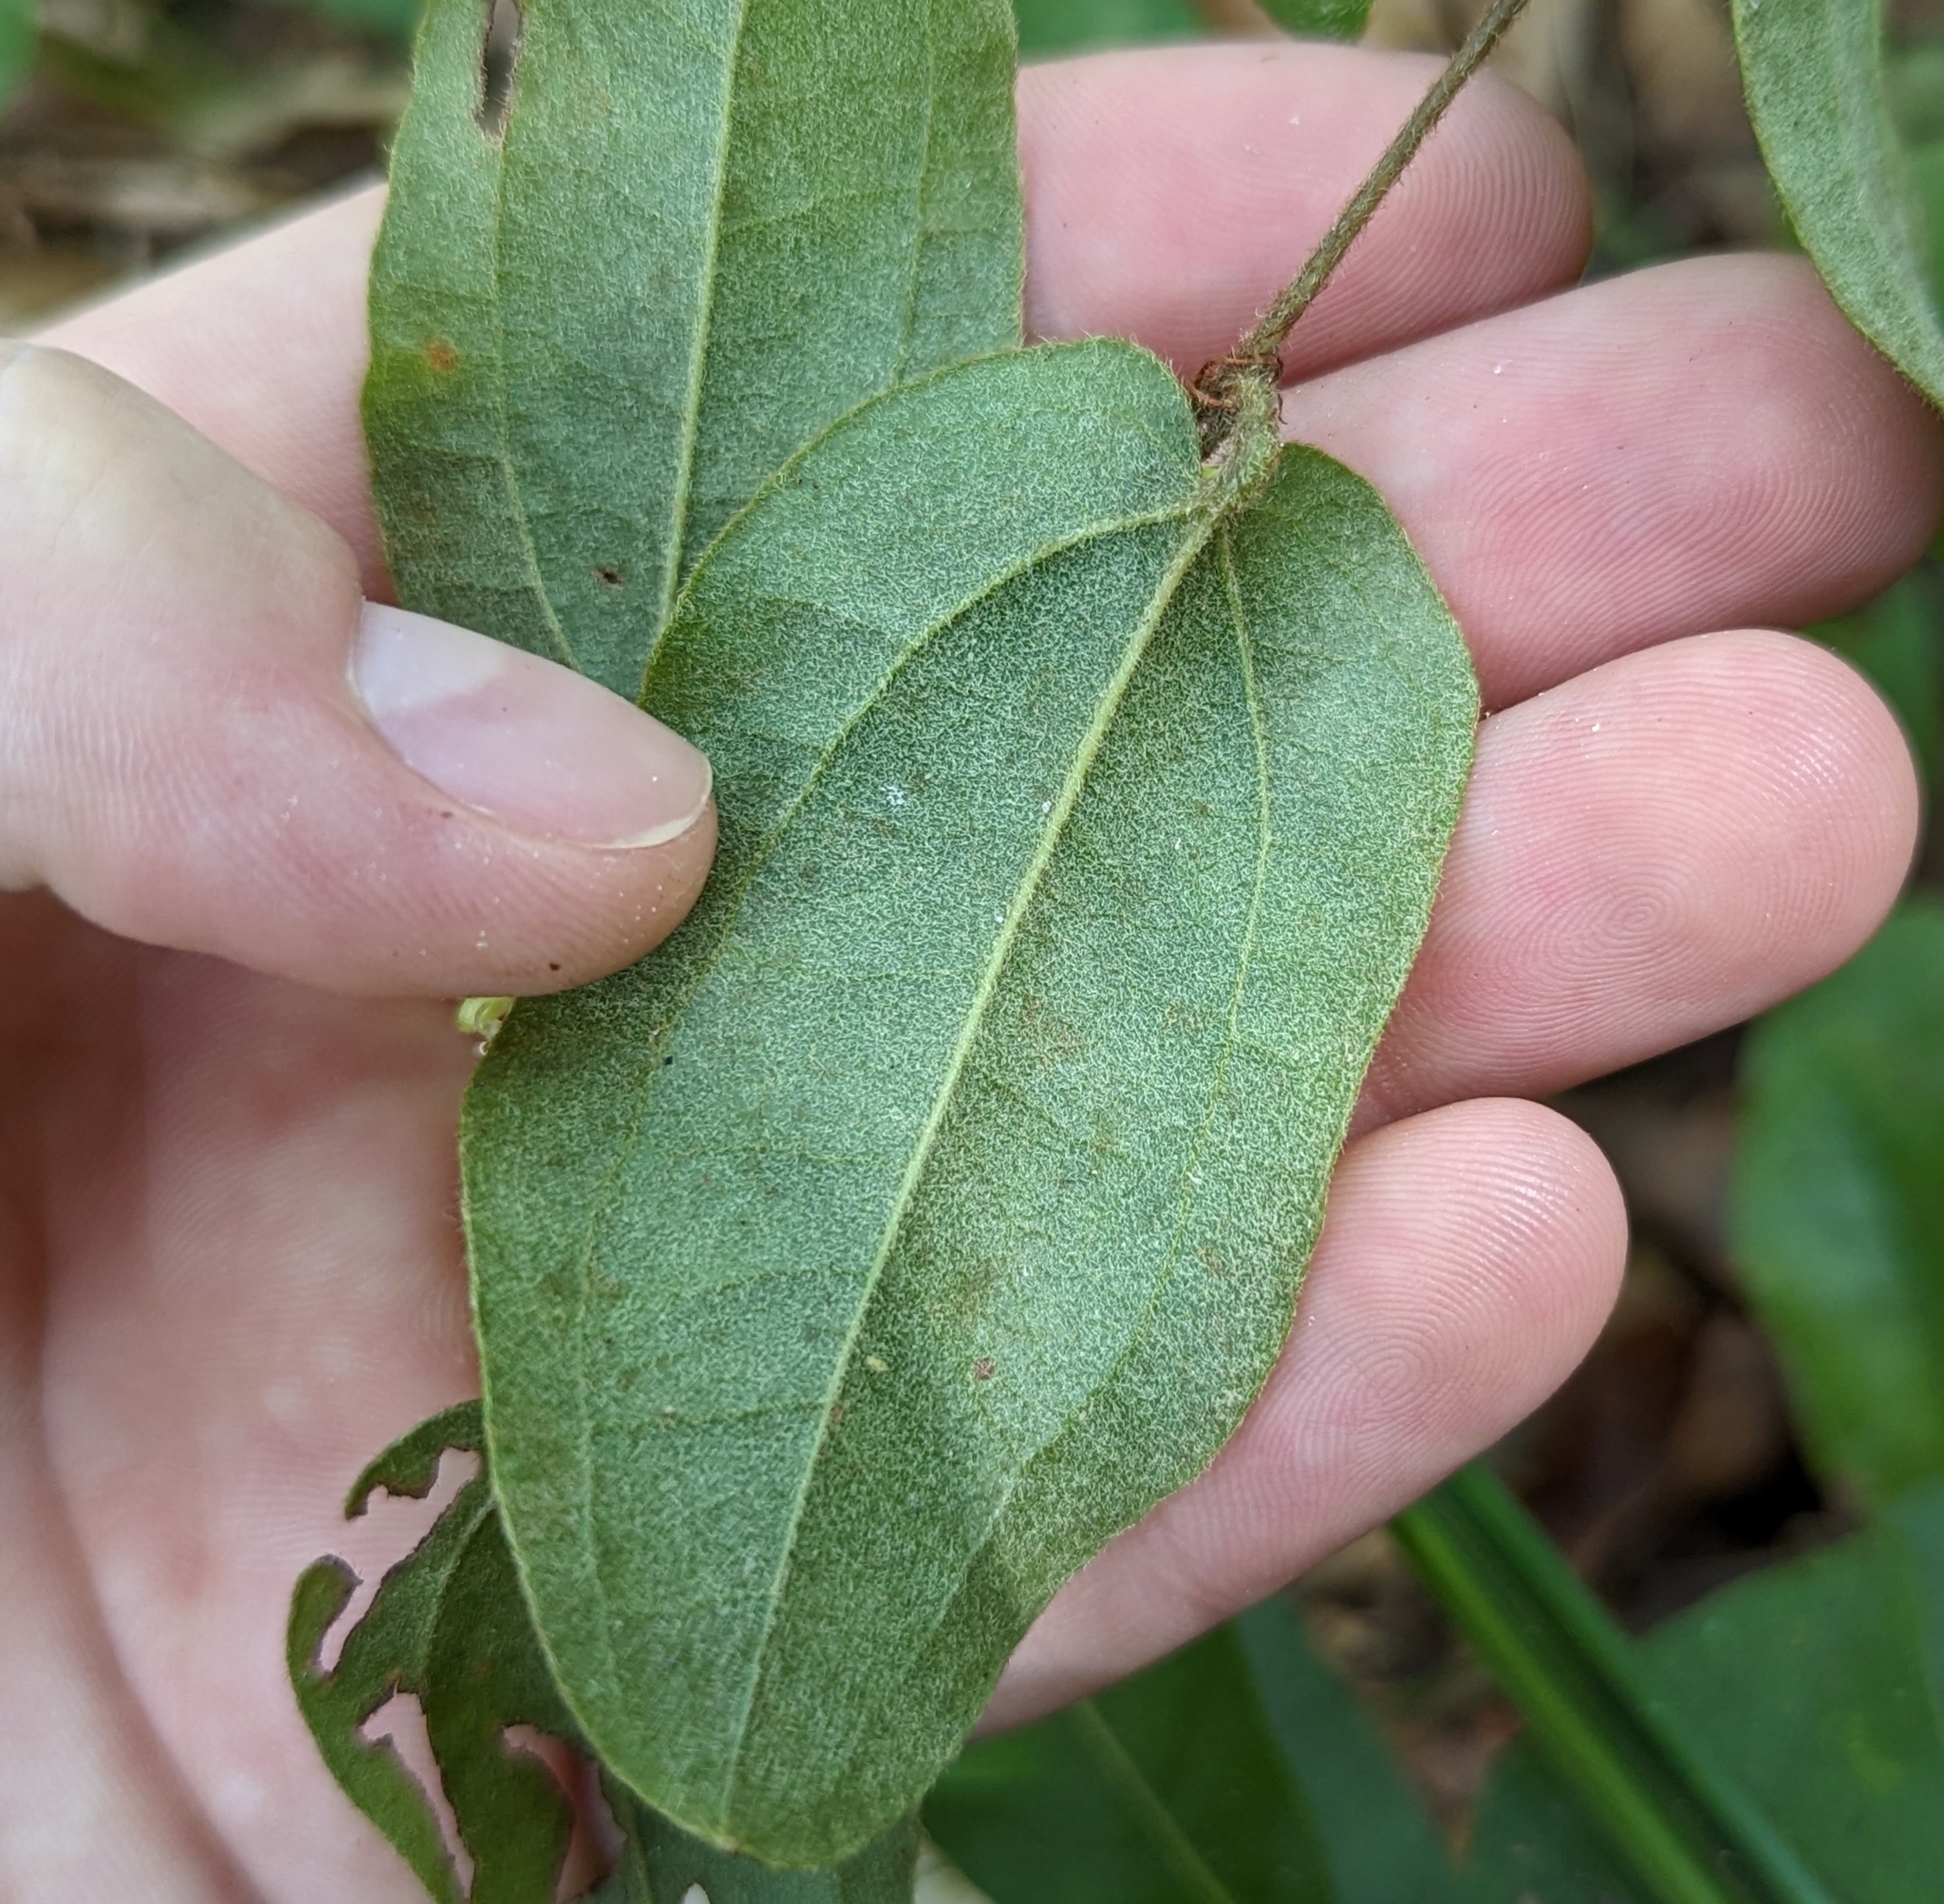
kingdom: Plantae
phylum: Tracheophyta
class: Liliopsida
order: Liliales
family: Smilacaceae
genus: Smilax
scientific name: Smilax pumila
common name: Sarsaparilla-vine
